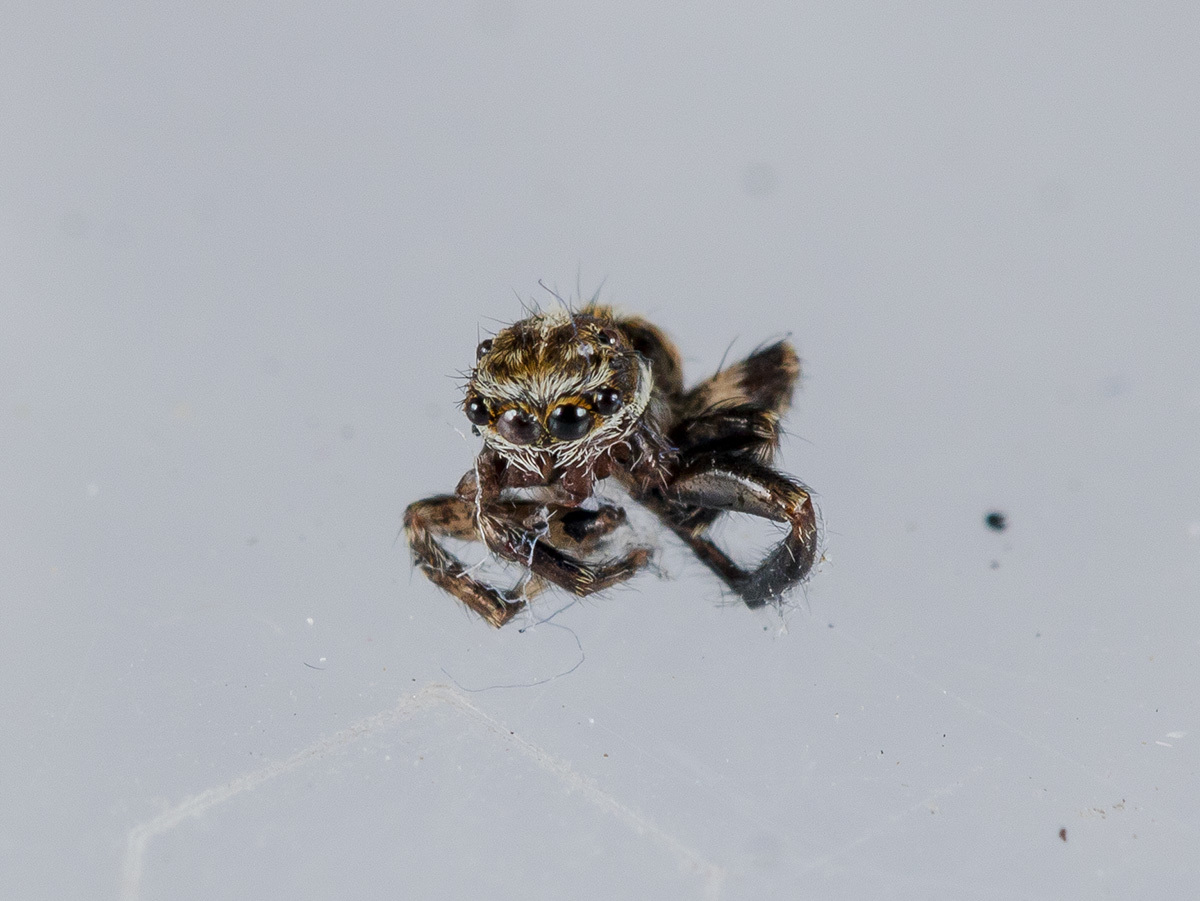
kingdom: Animalia
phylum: Arthropoda
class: Arachnida
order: Araneae
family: Salticidae
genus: Pseudeuophrys
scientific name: Pseudeuophrys obsoleta
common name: Whelk-shell jumper
